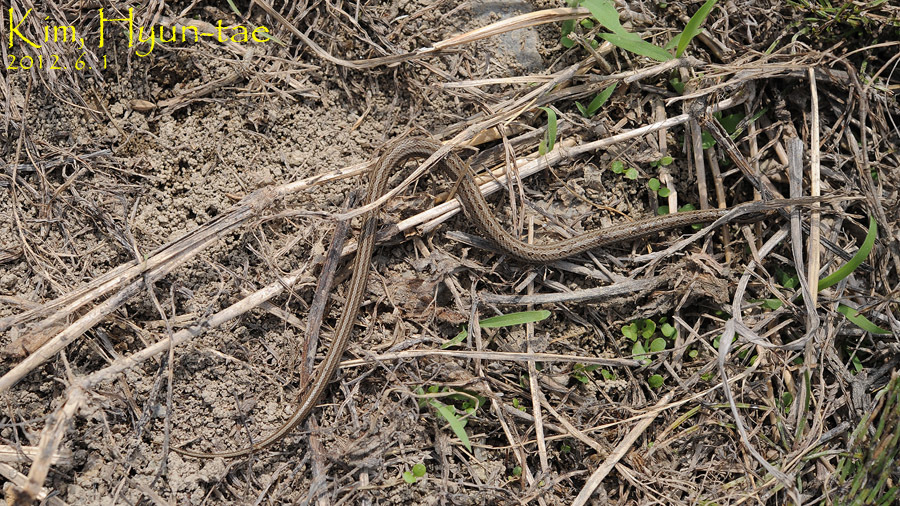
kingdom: Animalia
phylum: Chordata
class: Squamata
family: Colubridae
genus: Oocatochus
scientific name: Oocatochus rufodorsatus
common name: Frog-eating rat snake
